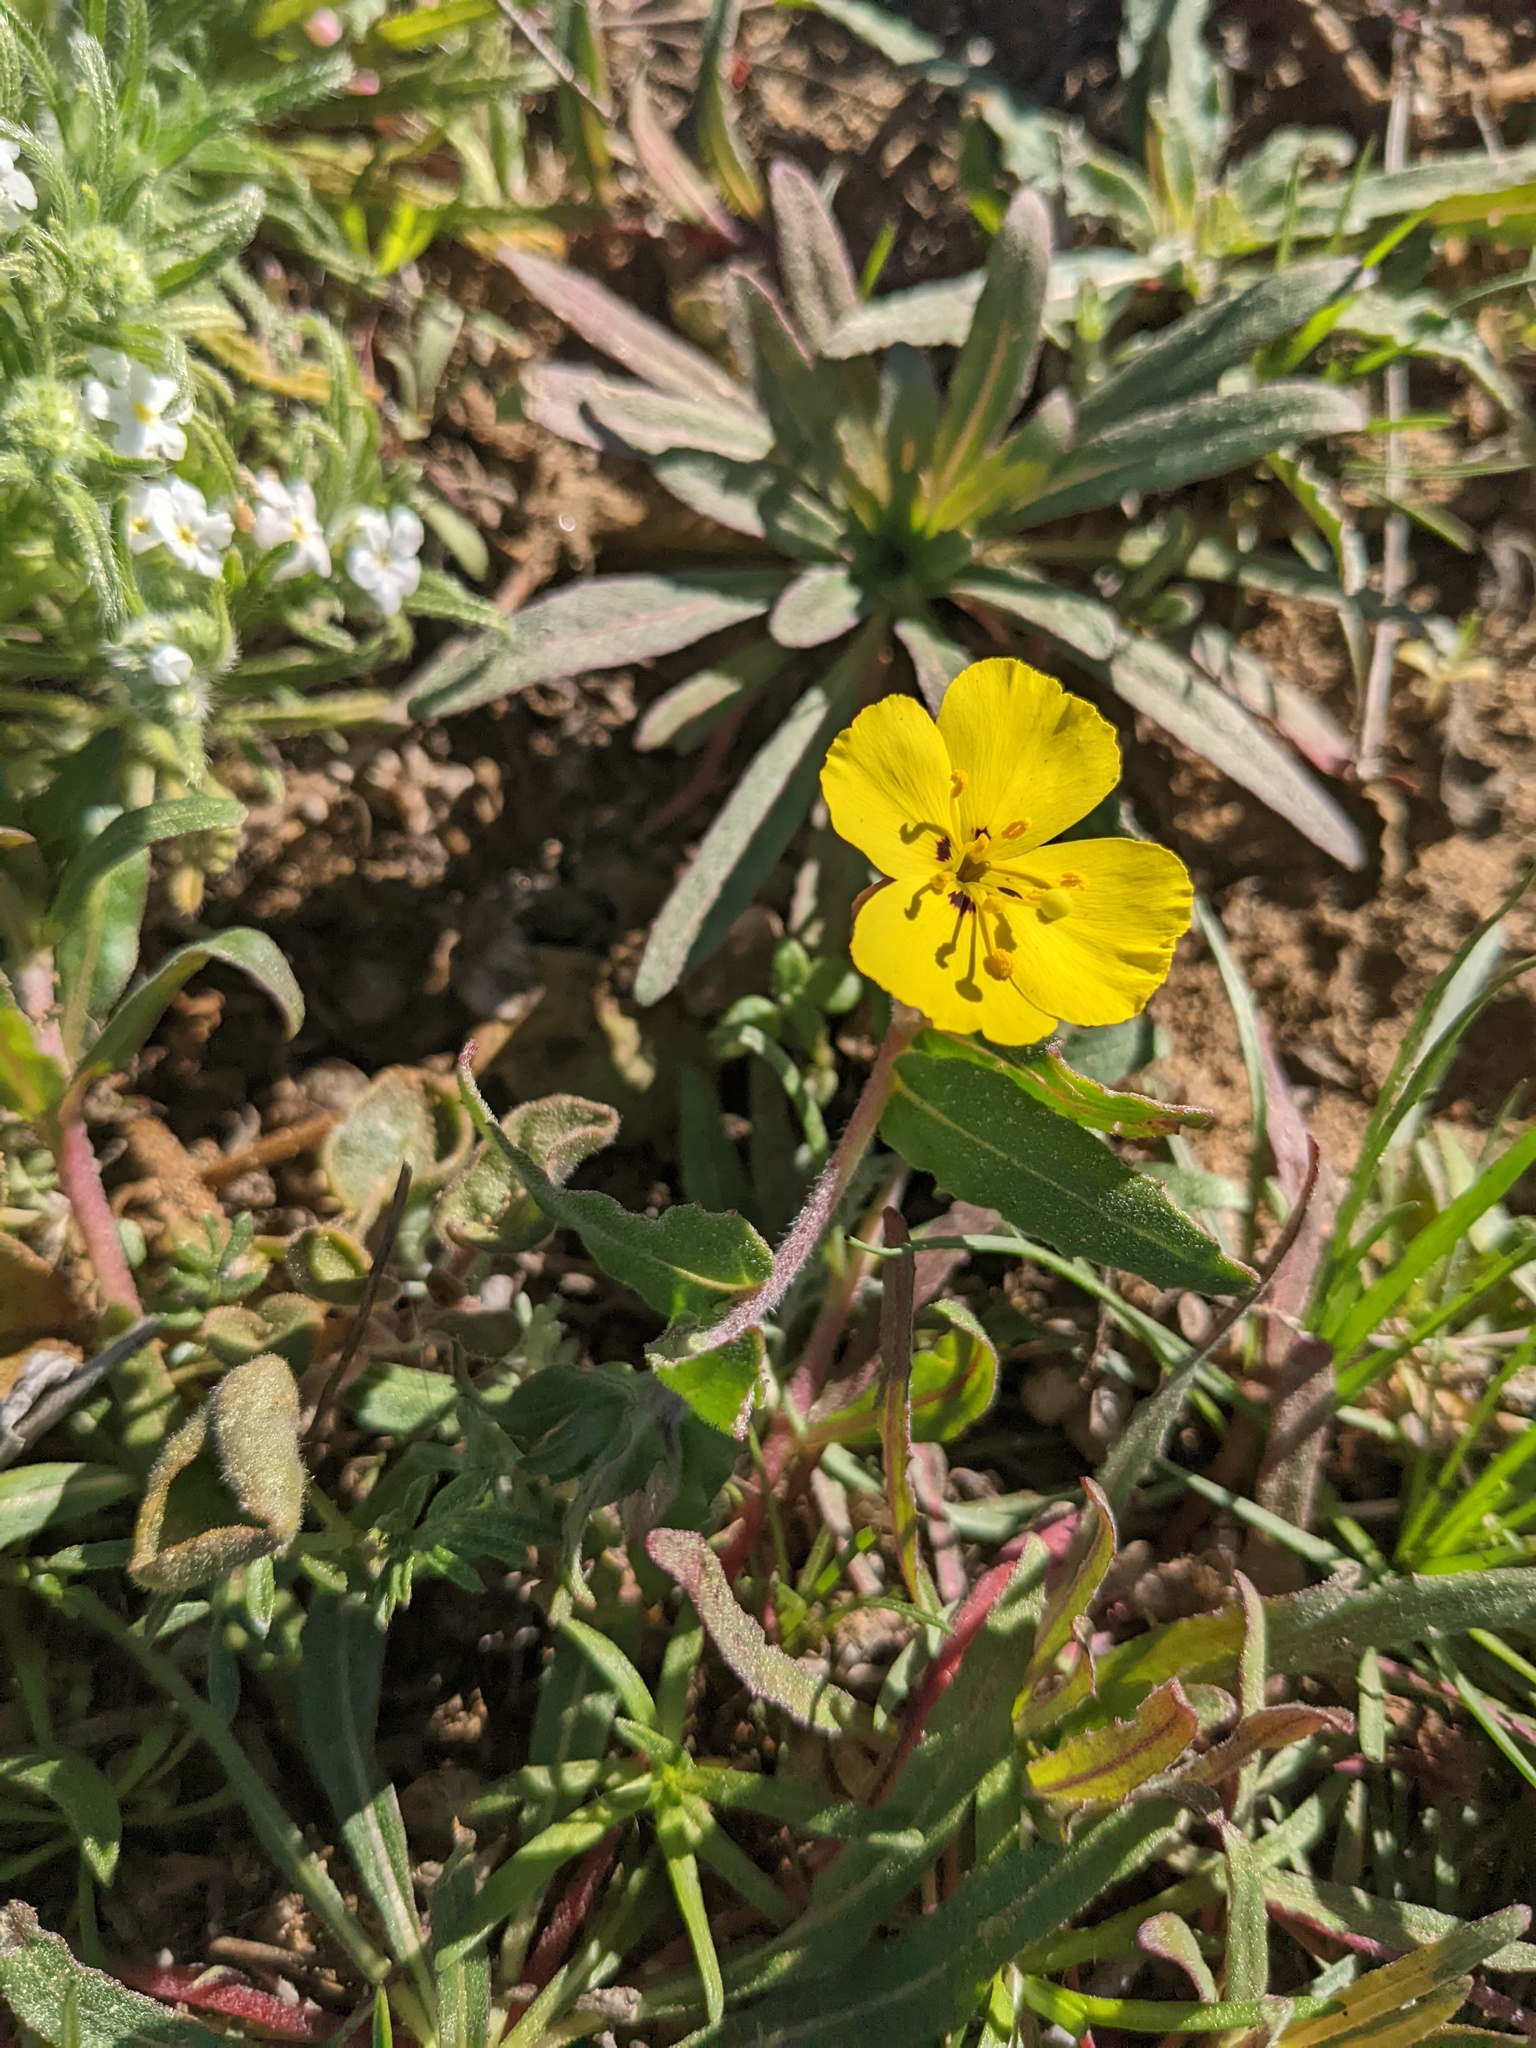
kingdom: Plantae
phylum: Tracheophyta
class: Magnoliopsida
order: Myrtales
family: Onagraceae
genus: Camissoniopsis
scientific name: Camissoniopsis cheiranthifolia
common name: Beach suncup
